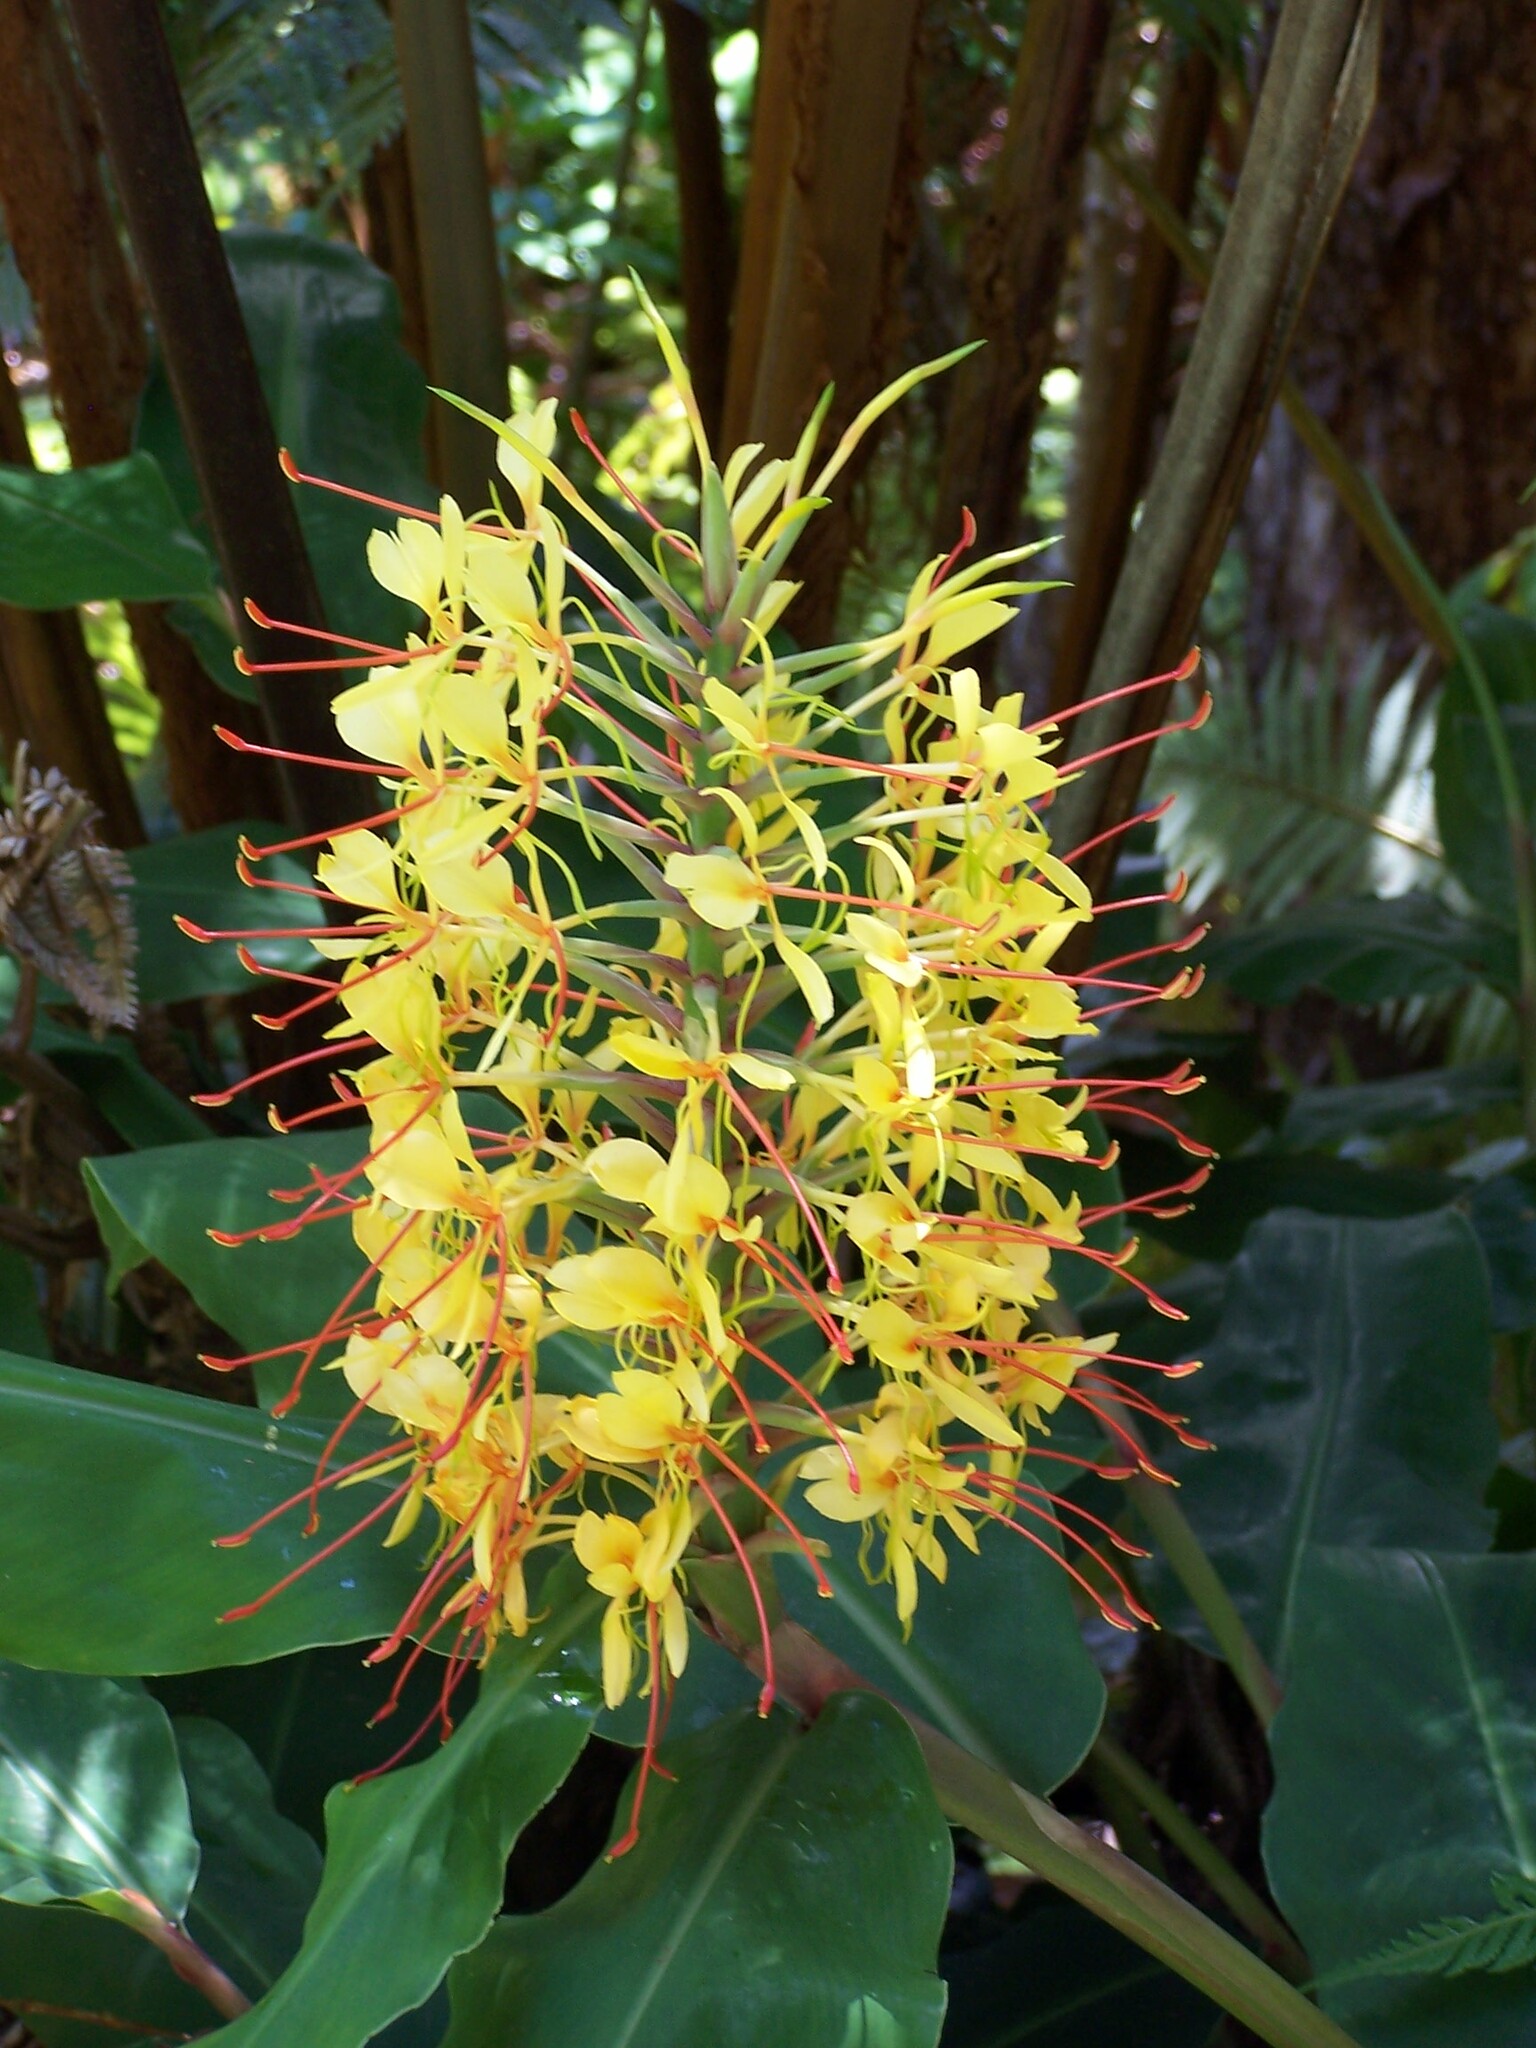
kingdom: Plantae
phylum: Tracheophyta
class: Liliopsida
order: Zingiberales
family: Zingiberaceae
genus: Hedychium
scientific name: Hedychium gardnerianum
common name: Himalayan ginger
